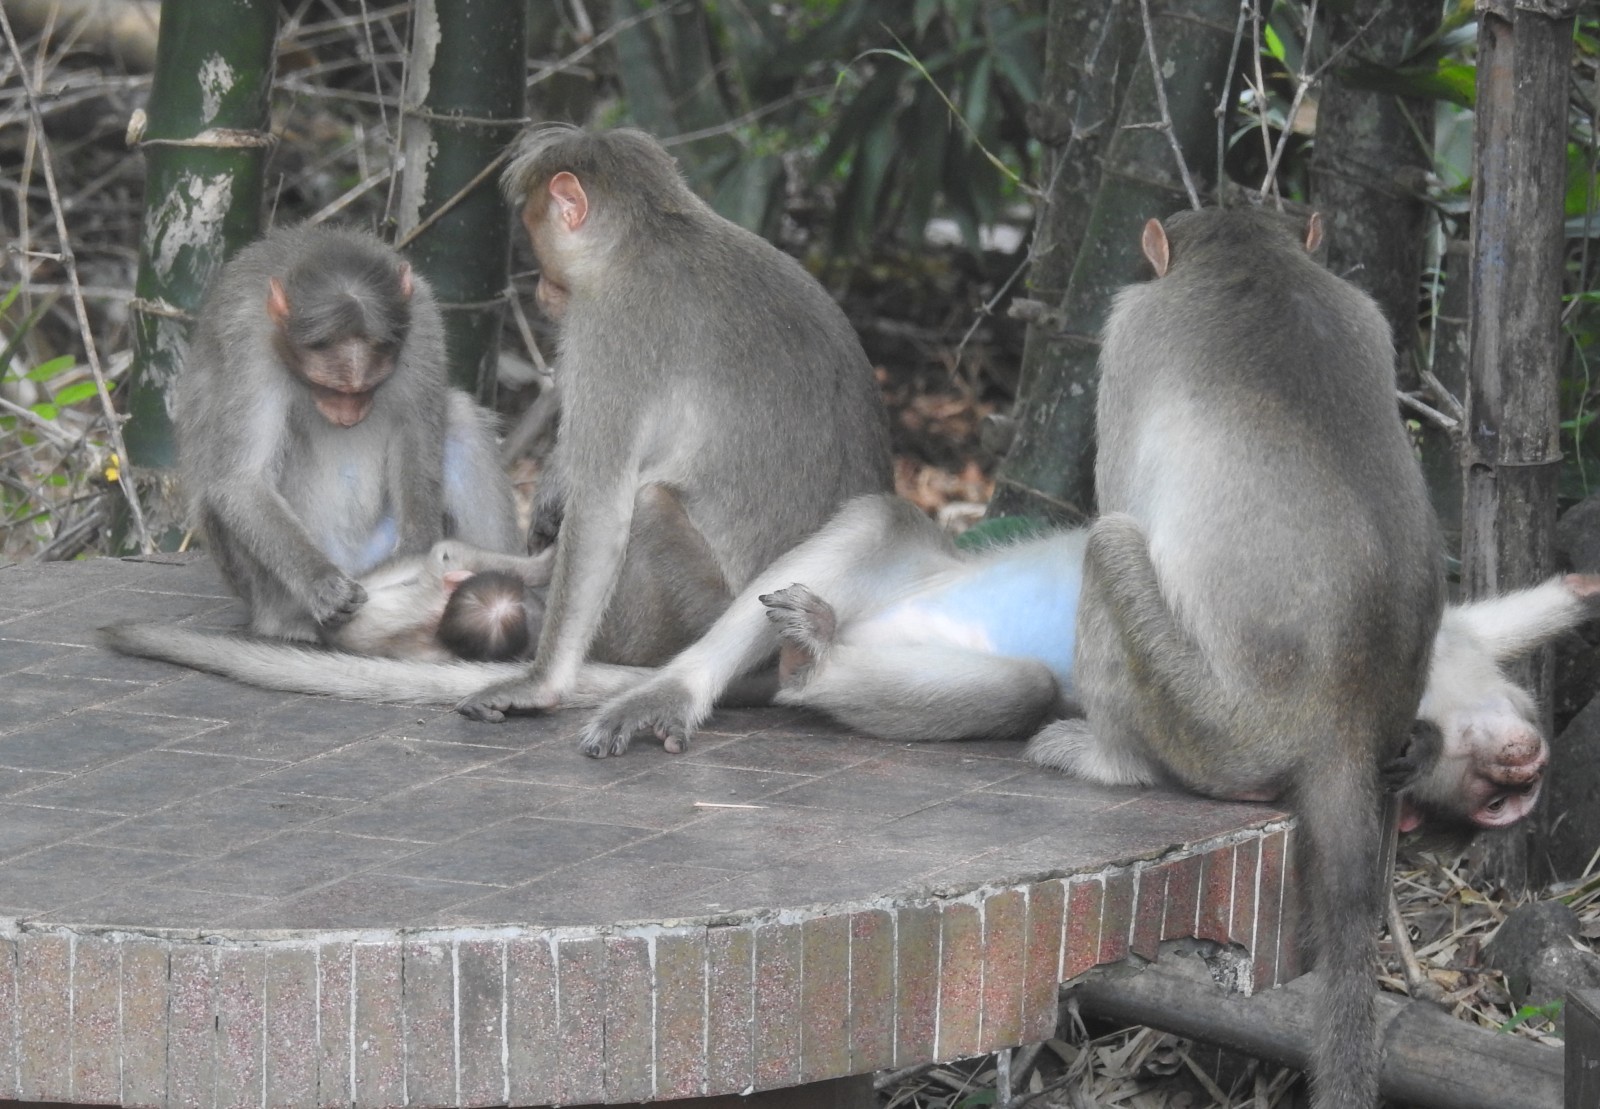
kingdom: Animalia
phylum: Chordata
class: Mammalia
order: Primates
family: Cercopithecidae
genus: Macaca
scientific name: Macaca radiata
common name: Bonnet macaque
